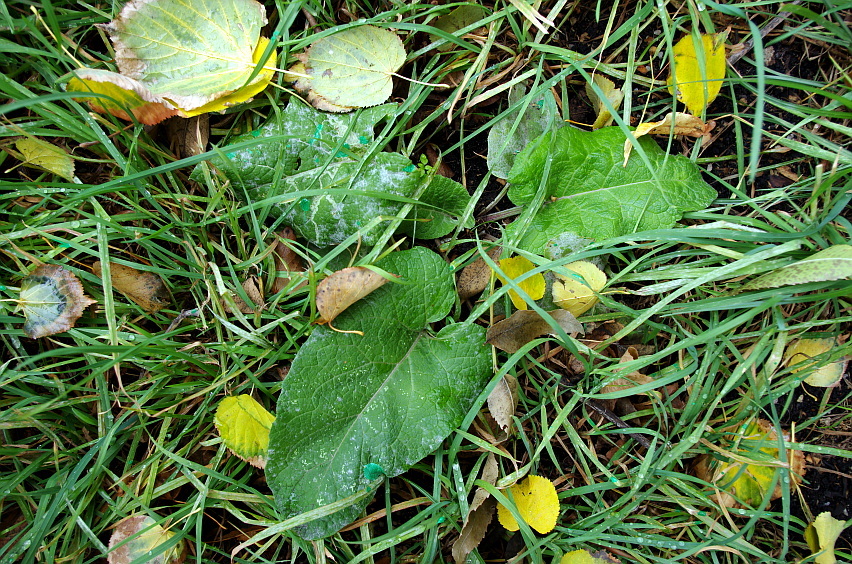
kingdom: Plantae
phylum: Tracheophyta
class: Magnoliopsida
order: Asterales
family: Asteraceae
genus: Arctium
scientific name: Arctium
